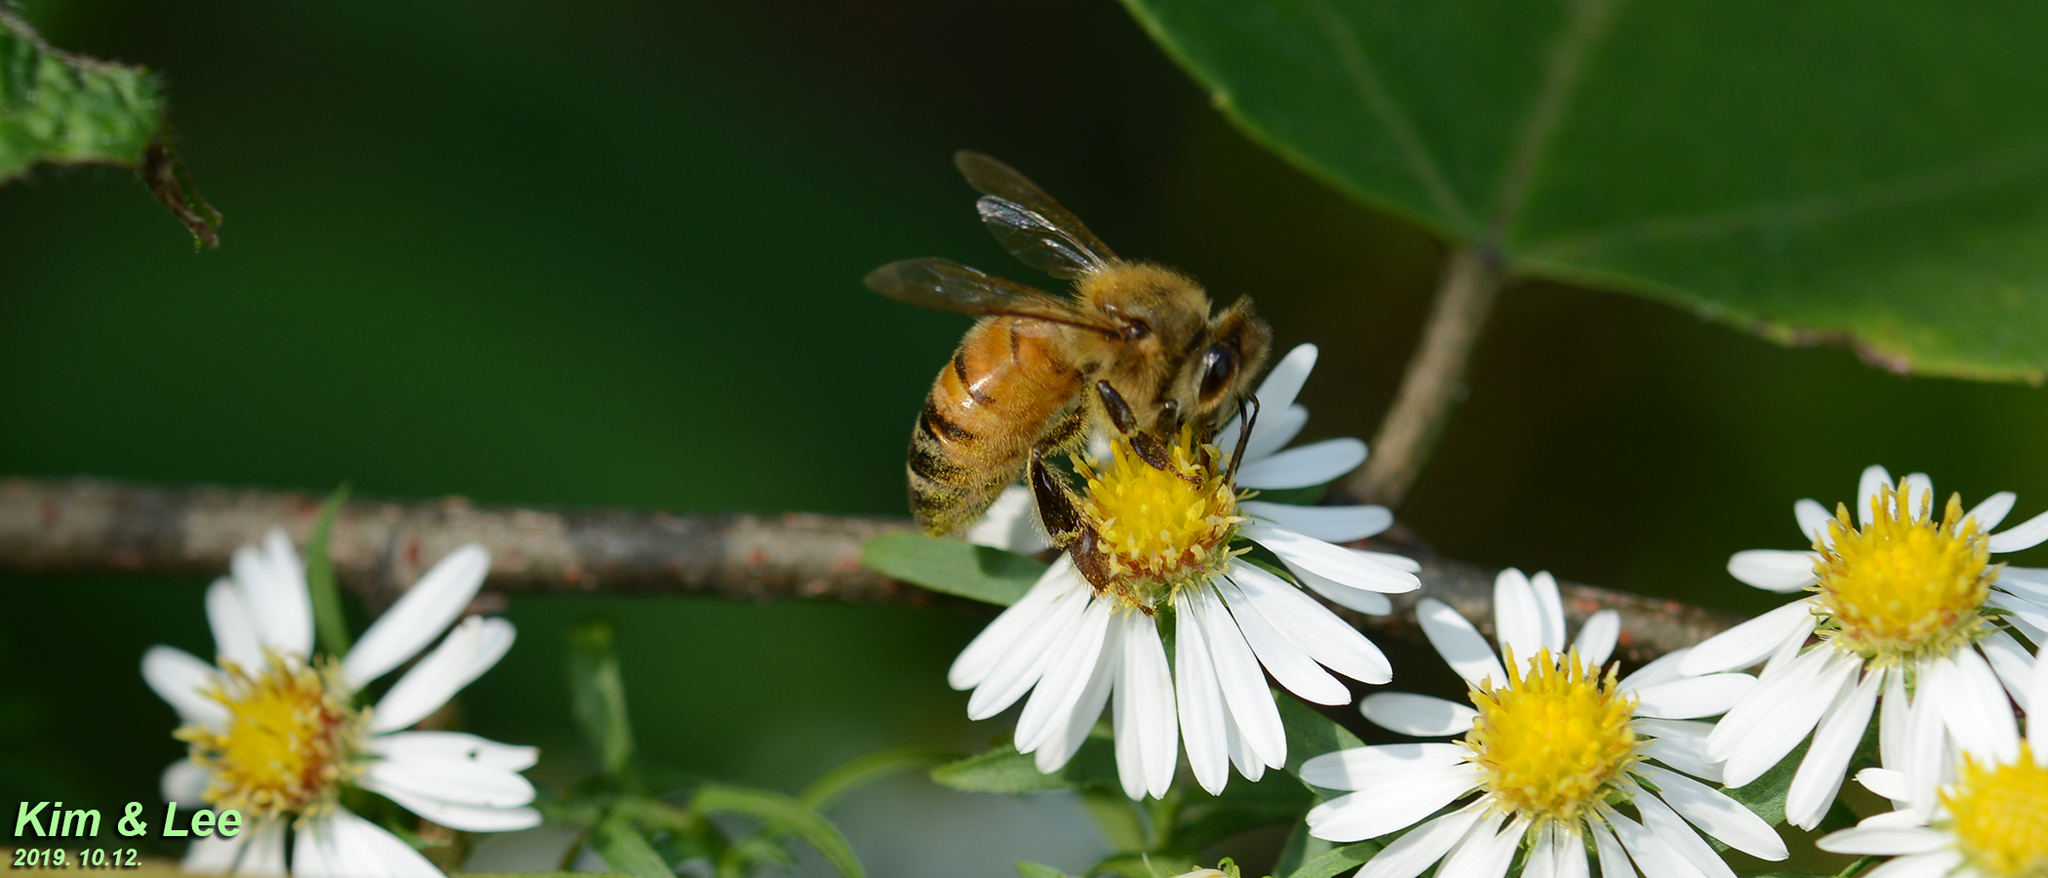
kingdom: Animalia
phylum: Arthropoda
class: Insecta
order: Hymenoptera
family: Apidae
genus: Apis
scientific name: Apis mellifera
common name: Honey bee
